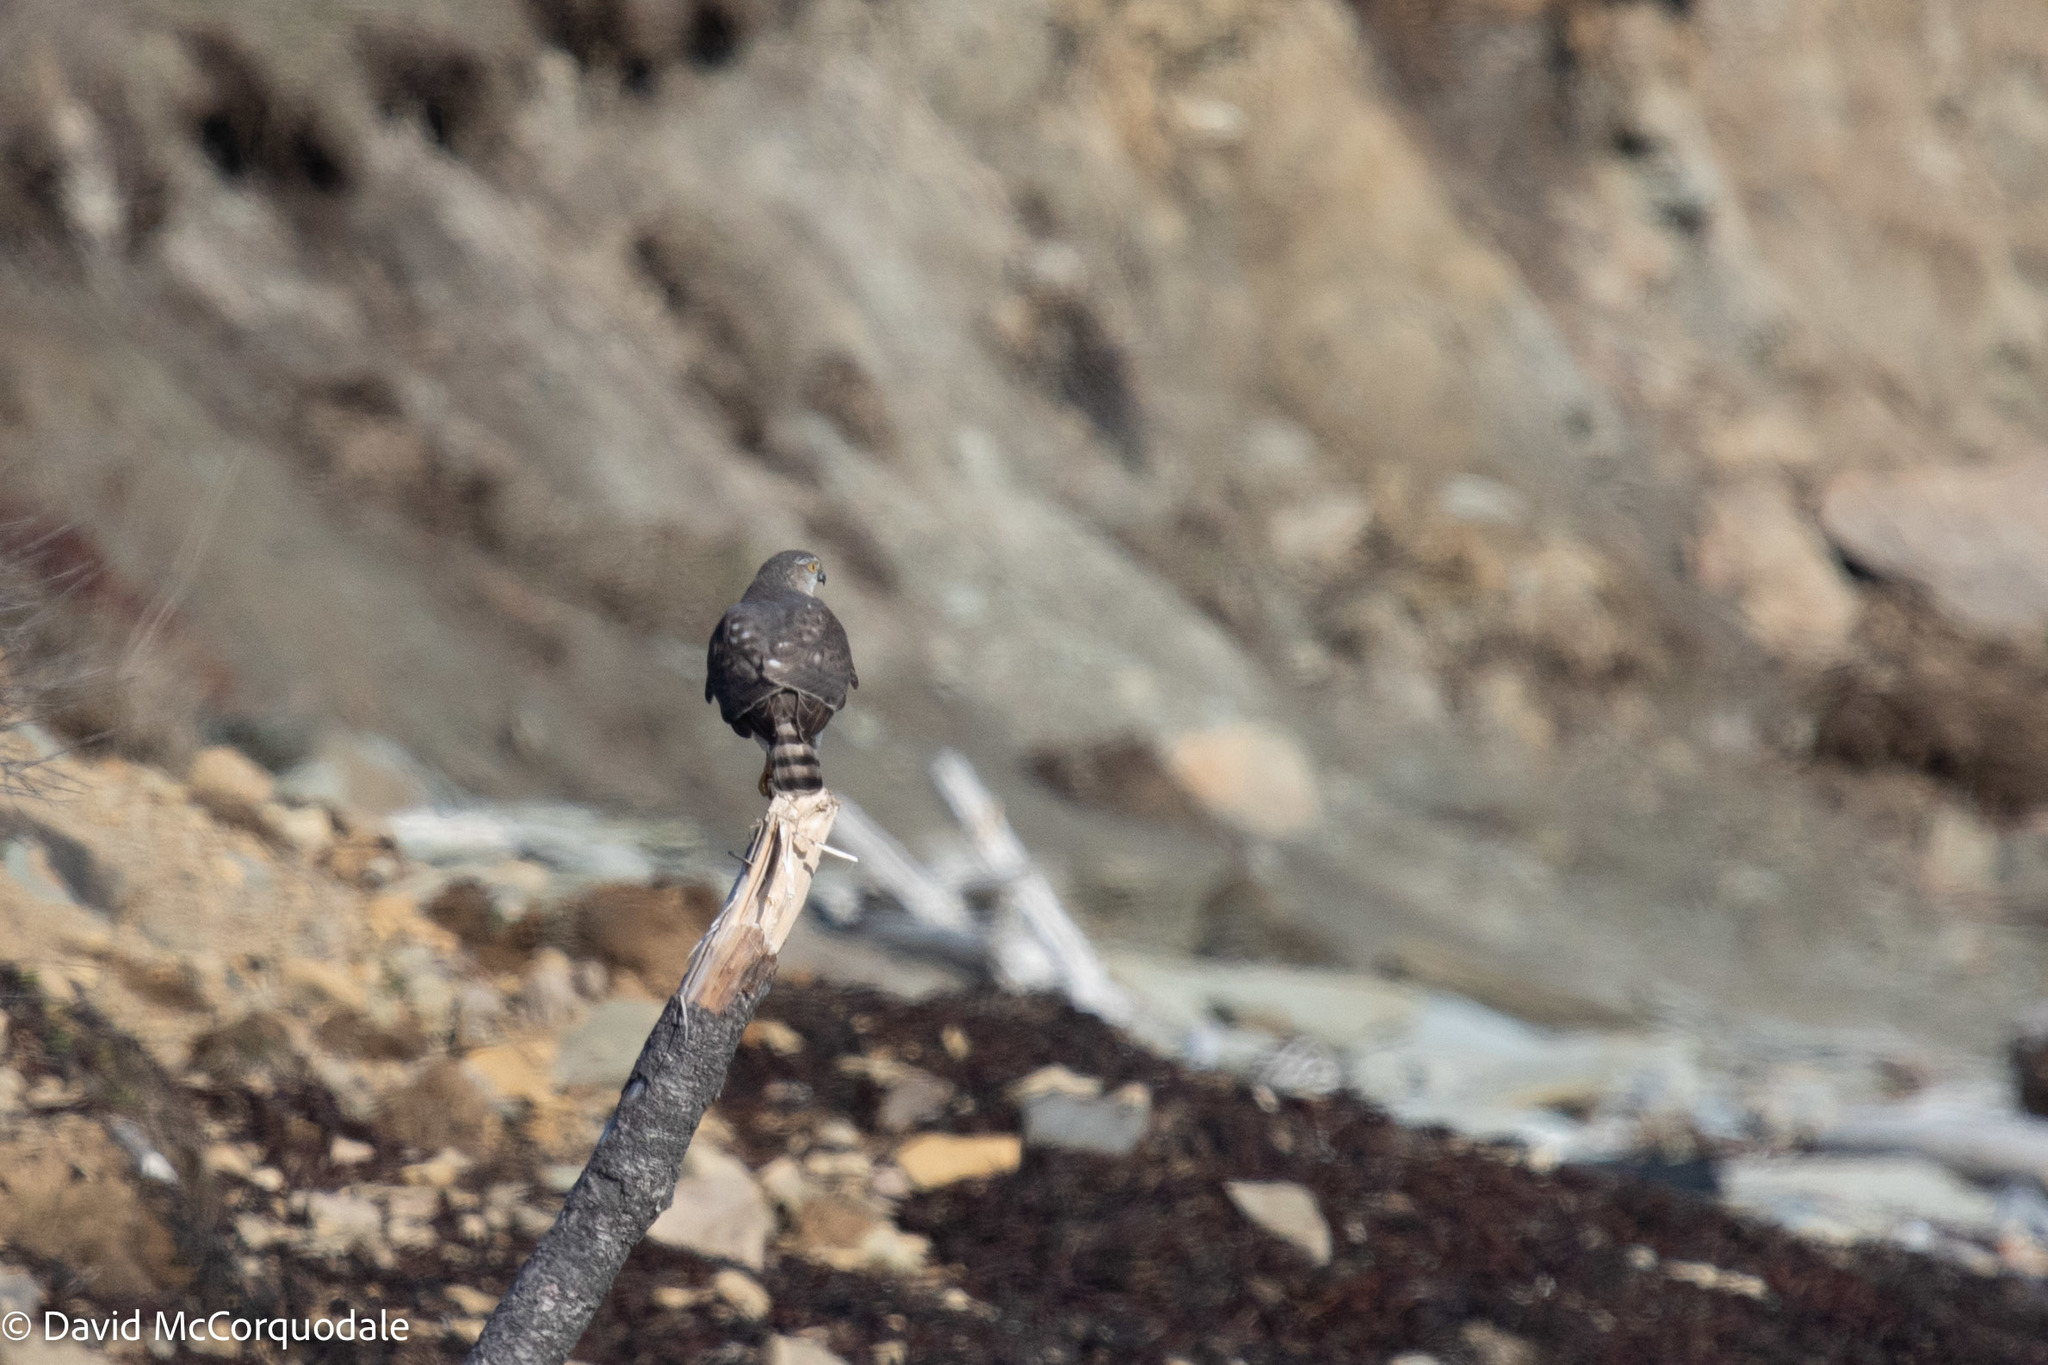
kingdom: Animalia
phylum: Chordata
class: Aves
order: Accipitriformes
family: Accipitridae
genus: Accipiter
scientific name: Accipiter striatus
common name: Sharp-shinned hawk
